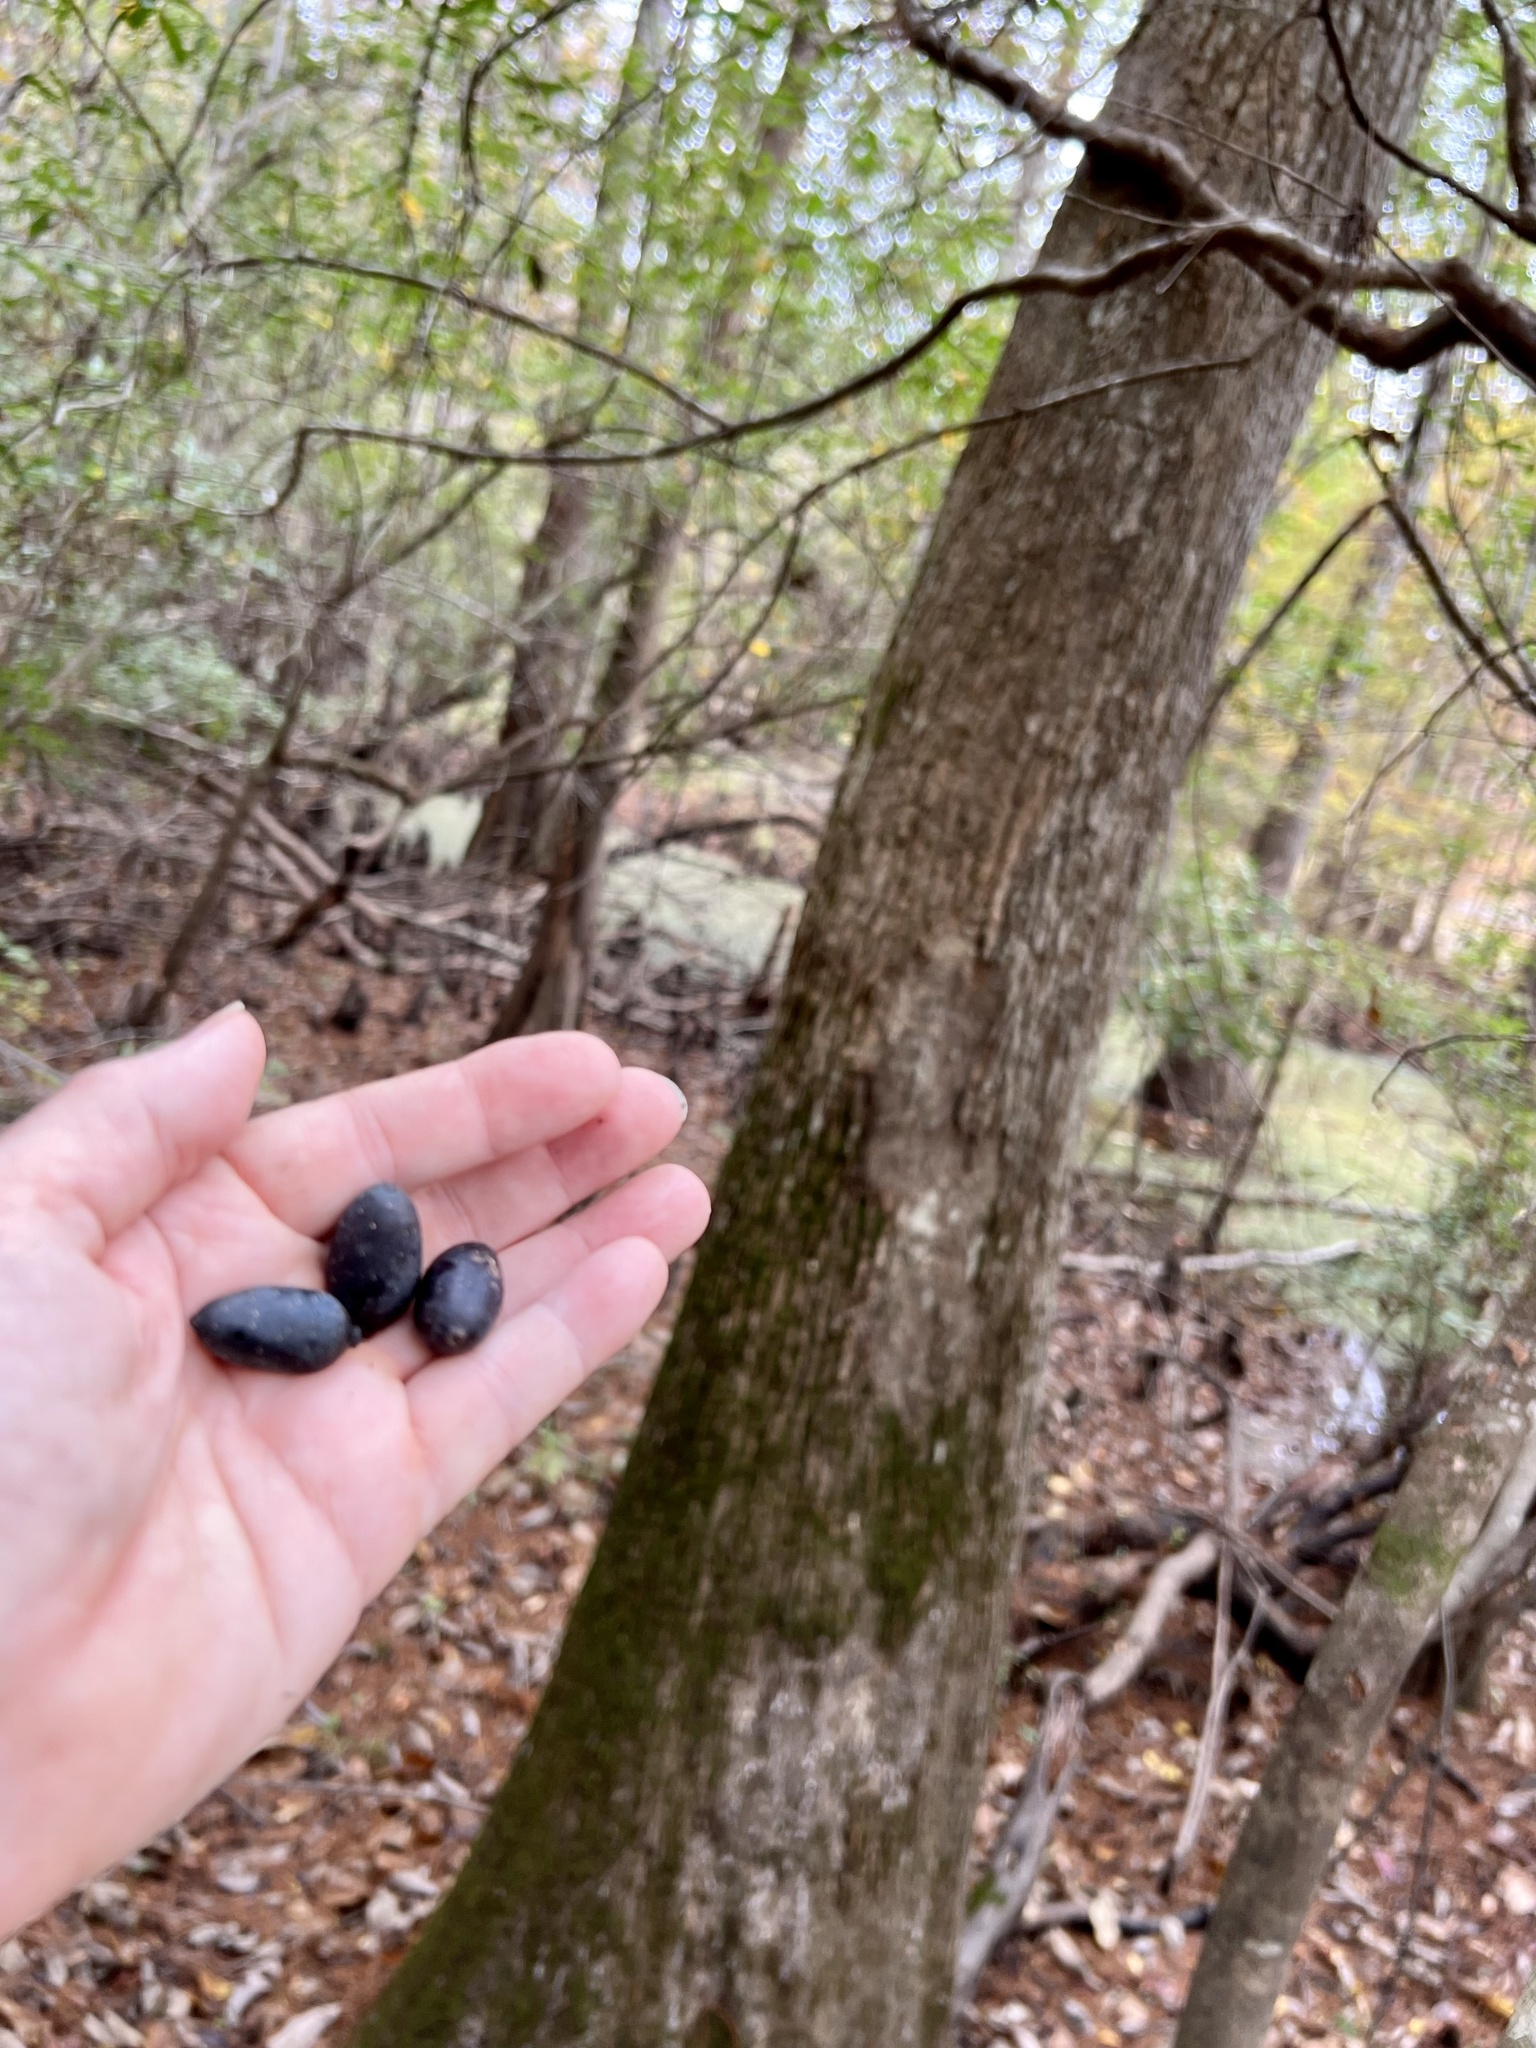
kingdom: Plantae
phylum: Tracheophyta
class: Magnoliopsida
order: Cornales
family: Nyssaceae
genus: Nyssa
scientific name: Nyssa aquatica
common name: Swamp tupelo
